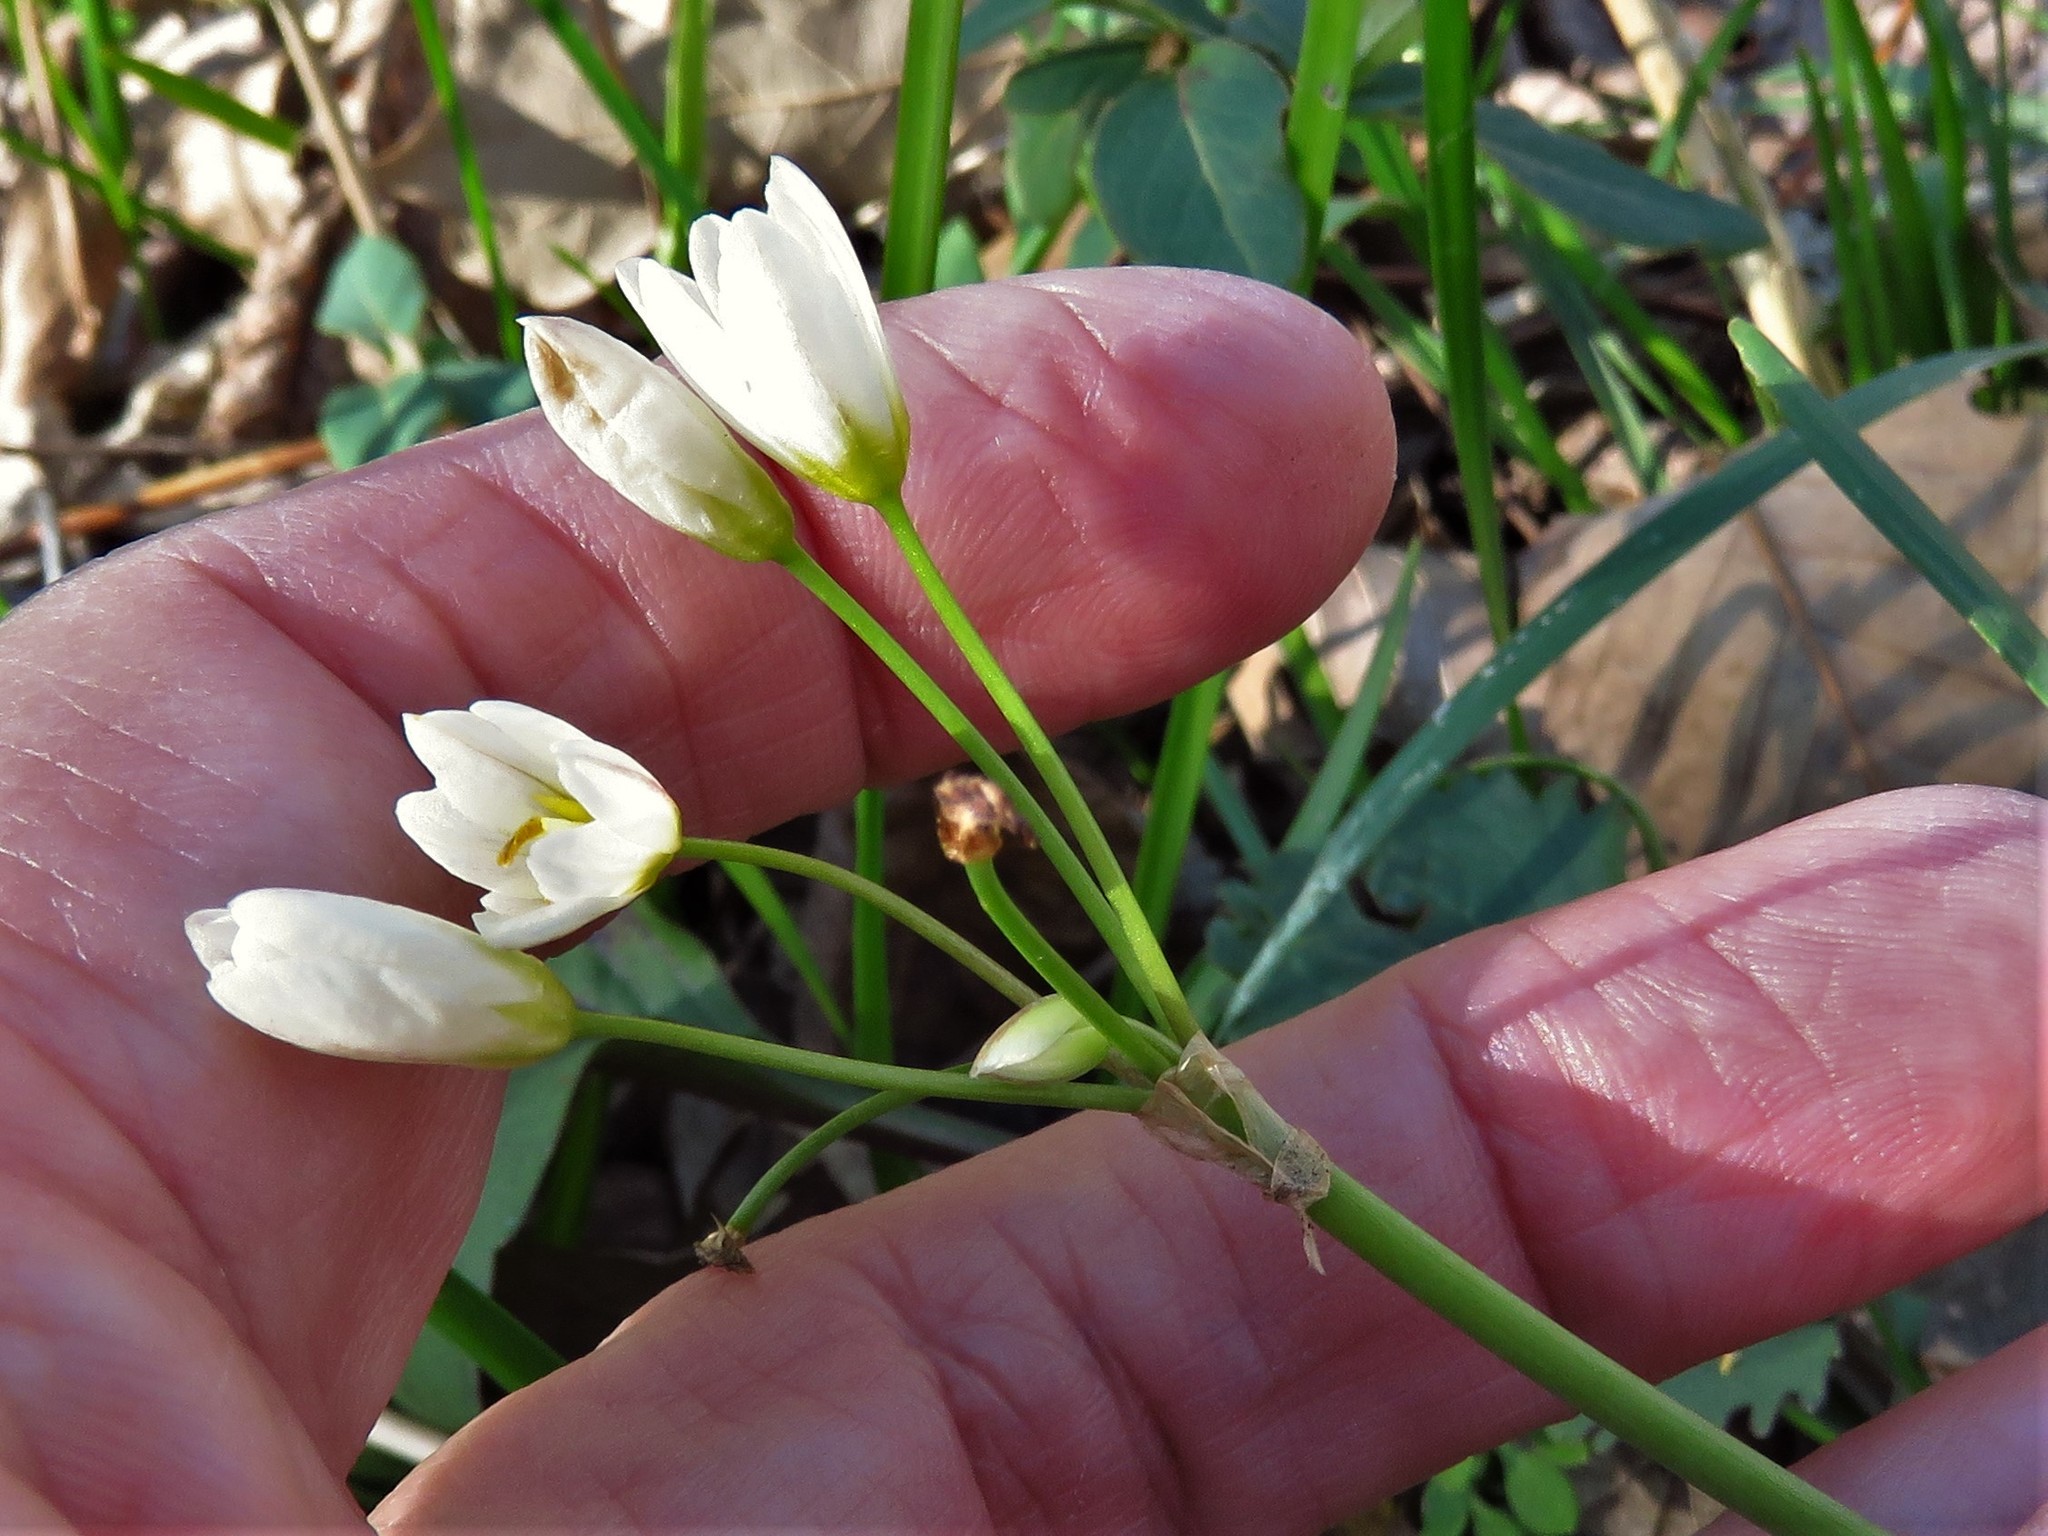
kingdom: Plantae
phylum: Tracheophyta
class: Liliopsida
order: Asparagales
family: Amaryllidaceae
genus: Nothoscordum
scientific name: Nothoscordum bivalve
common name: Crow-poison
